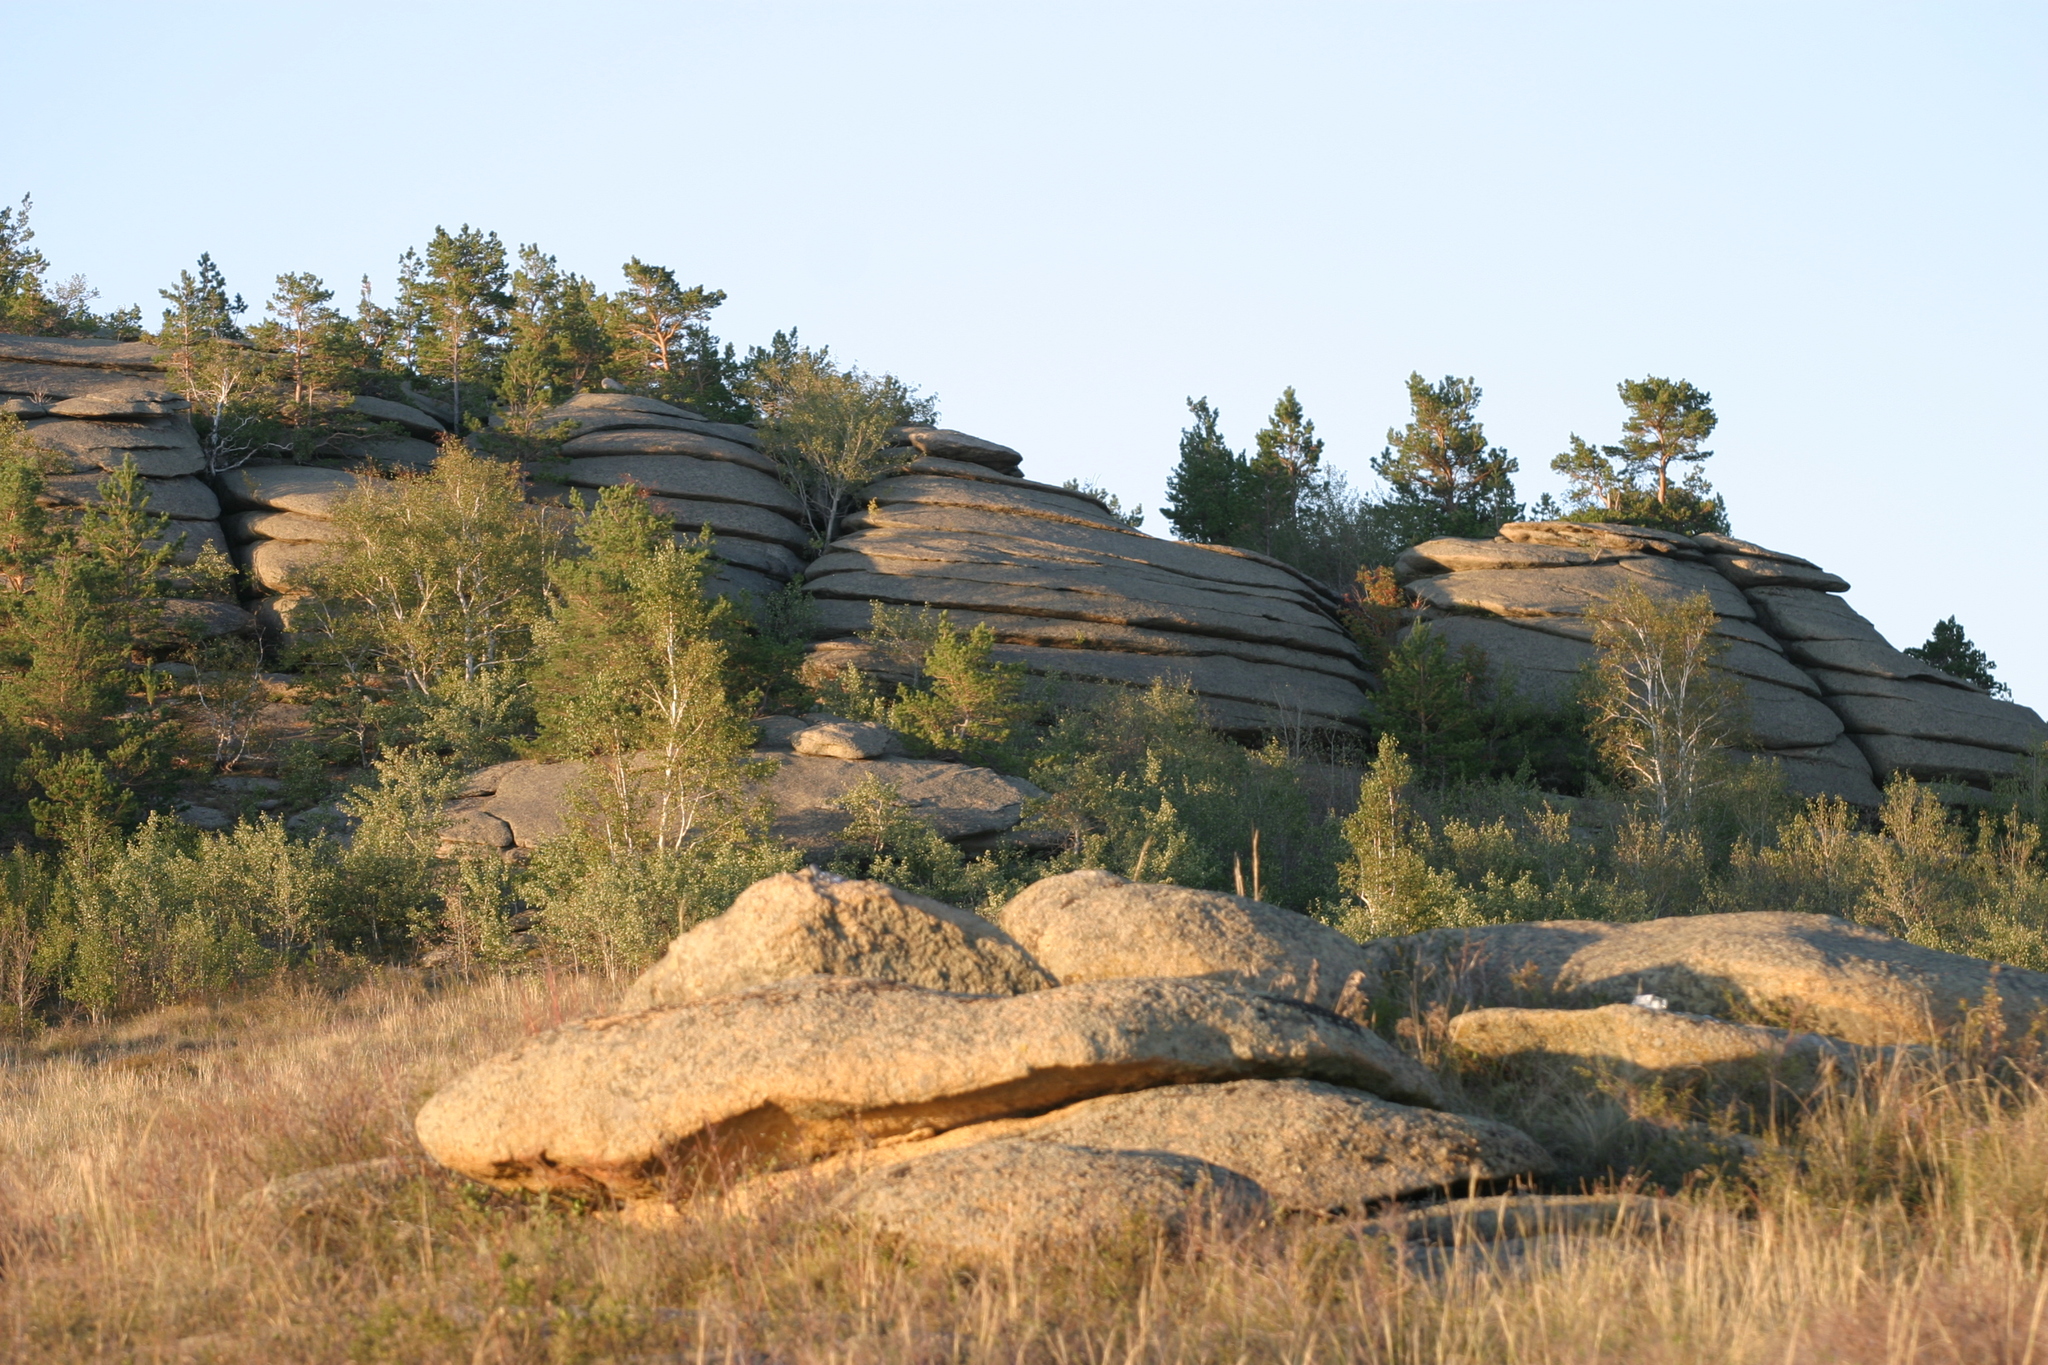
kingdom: Plantae
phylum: Tracheophyta
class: Magnoliopsida
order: Fagales
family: Betulaceae
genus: Betula
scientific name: Betula pendula
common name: Silver birch
